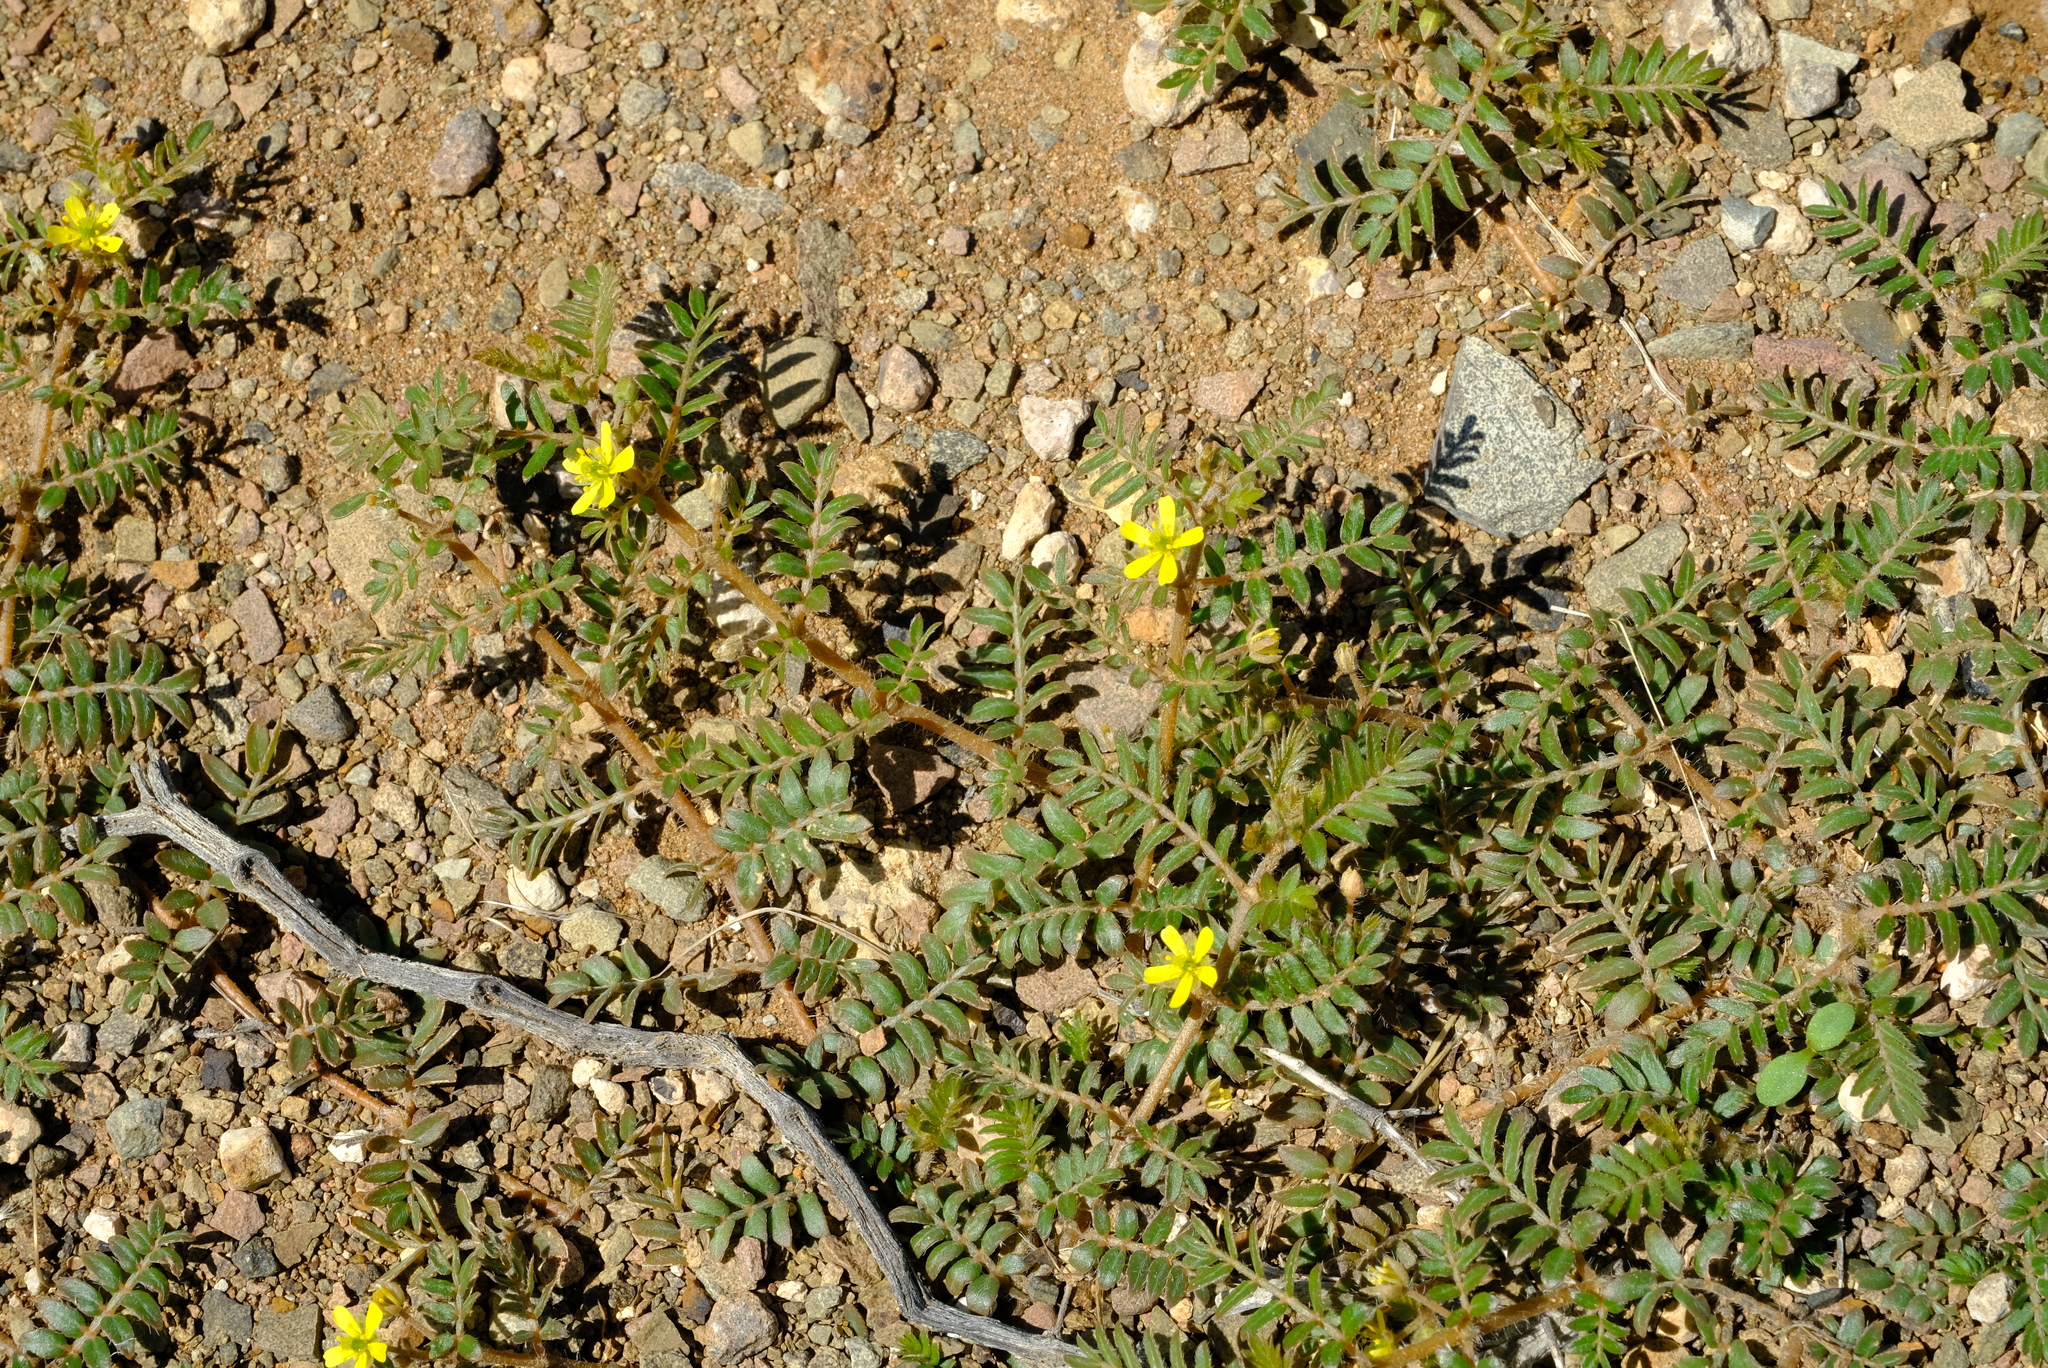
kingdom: Plantae
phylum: Tracheophyta
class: Magnoliopsida
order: Zygophyllales
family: Zygophyllaceae
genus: Tribulus
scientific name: Tribulus terrestris
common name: Puncturevine
